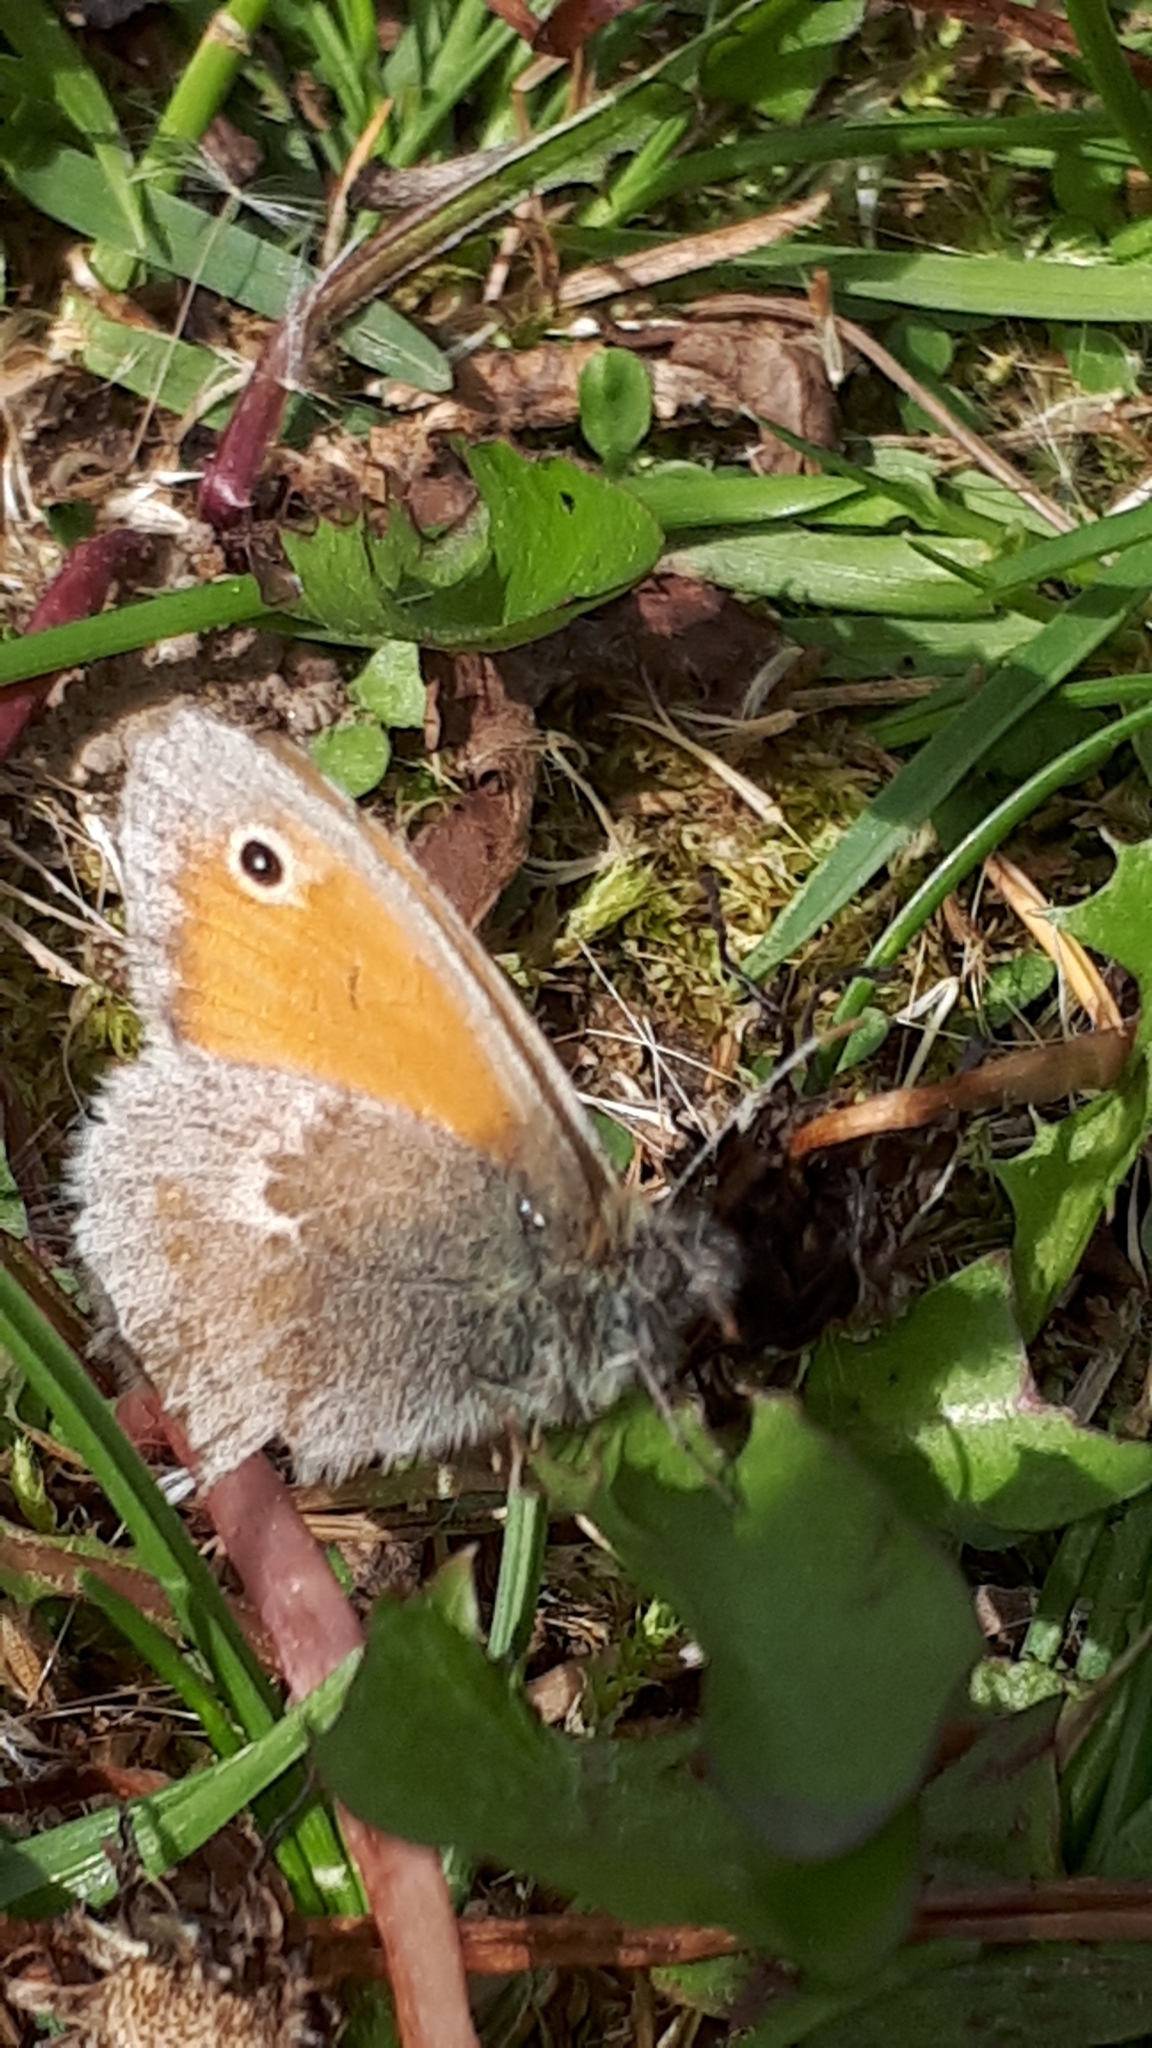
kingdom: Animalia
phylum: Arthropoda
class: Insecta
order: Lepidoptera
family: Nymphalidae
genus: Coenonympha
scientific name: Coenonympha pamphilus
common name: Small heath
